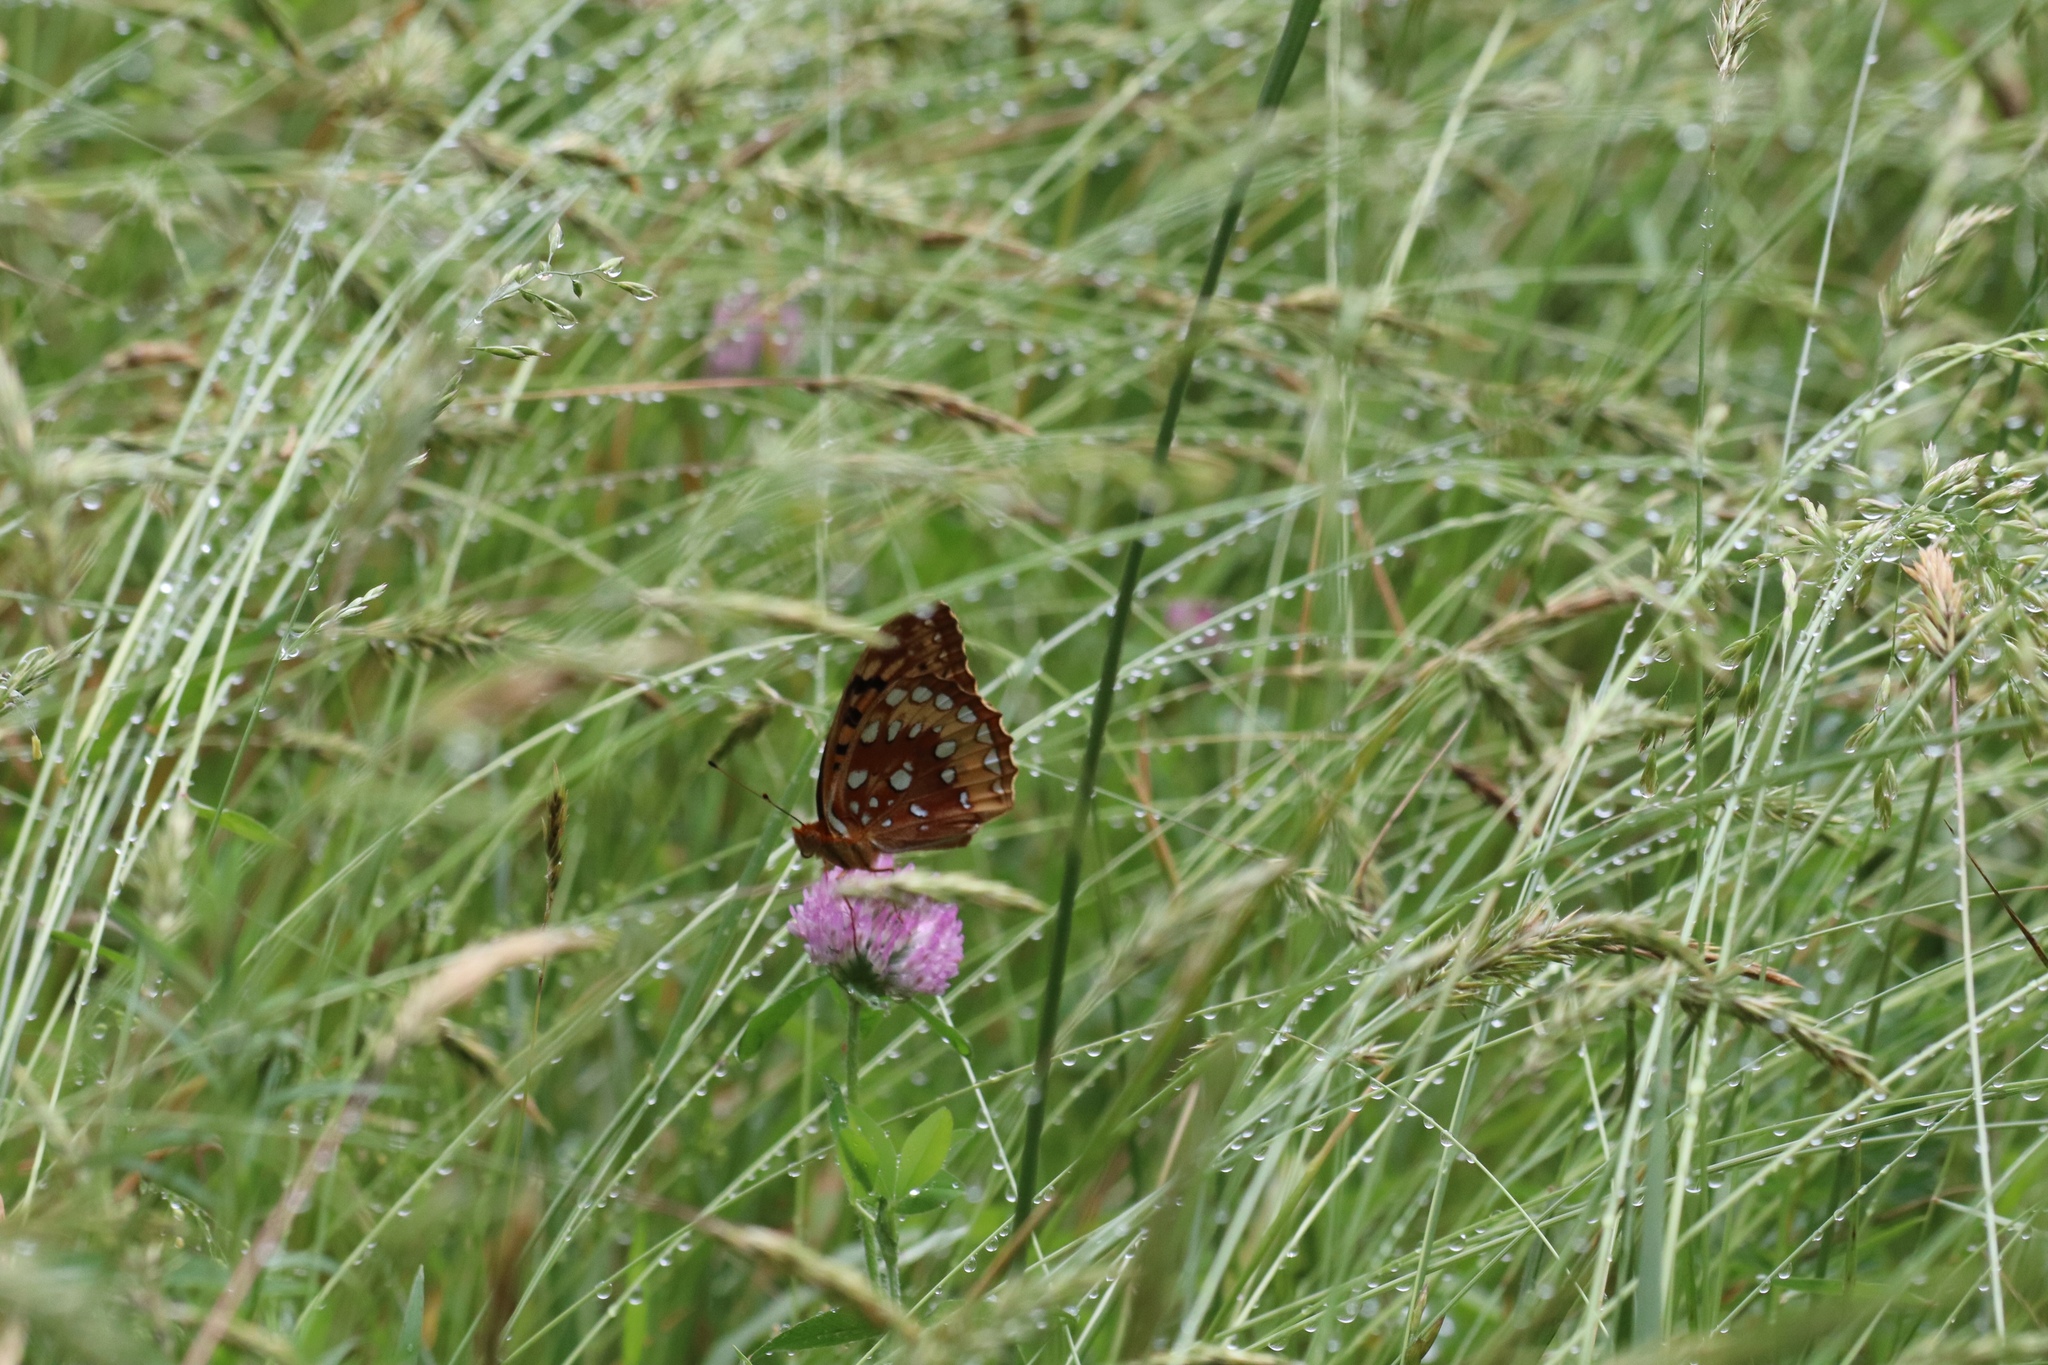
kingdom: Animalia
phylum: Arthropoda
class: Insecta
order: Lepidoptera
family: Nymphalidae
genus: Speyeria
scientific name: Speyeria cybele
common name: Great spangled fritillary
